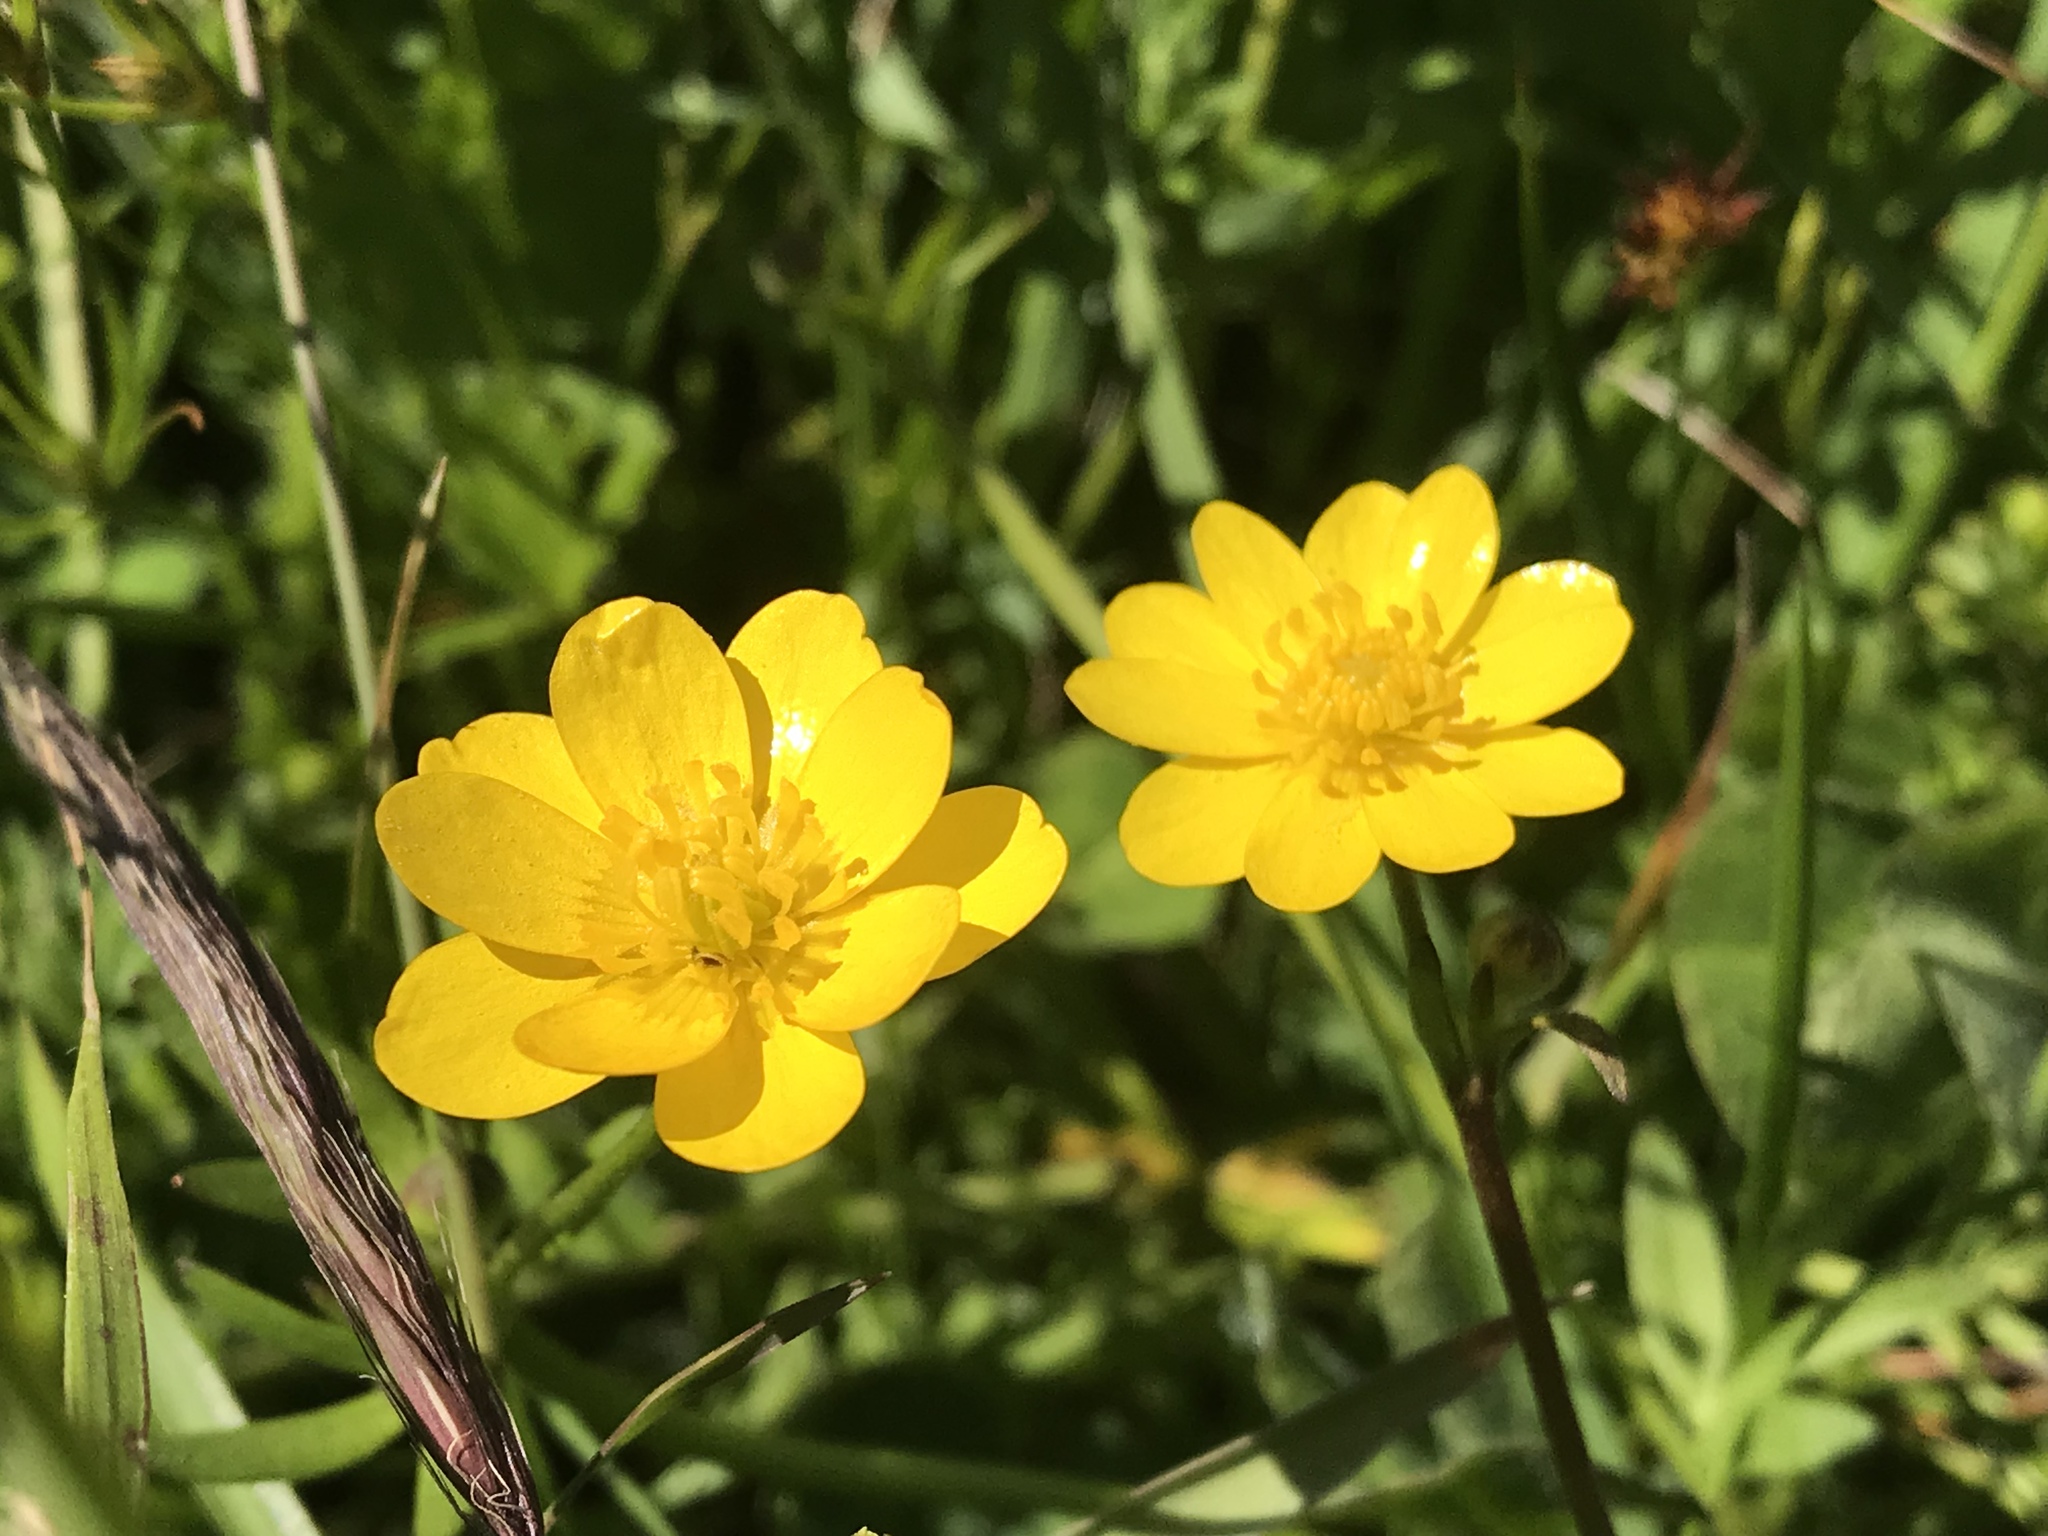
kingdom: Plantae
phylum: Tracheophyta
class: Magnoliopsida
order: Ranunculales
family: Ranunculaceae
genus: Ranunculus
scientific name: Ranunculus californicus
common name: California buttercup
